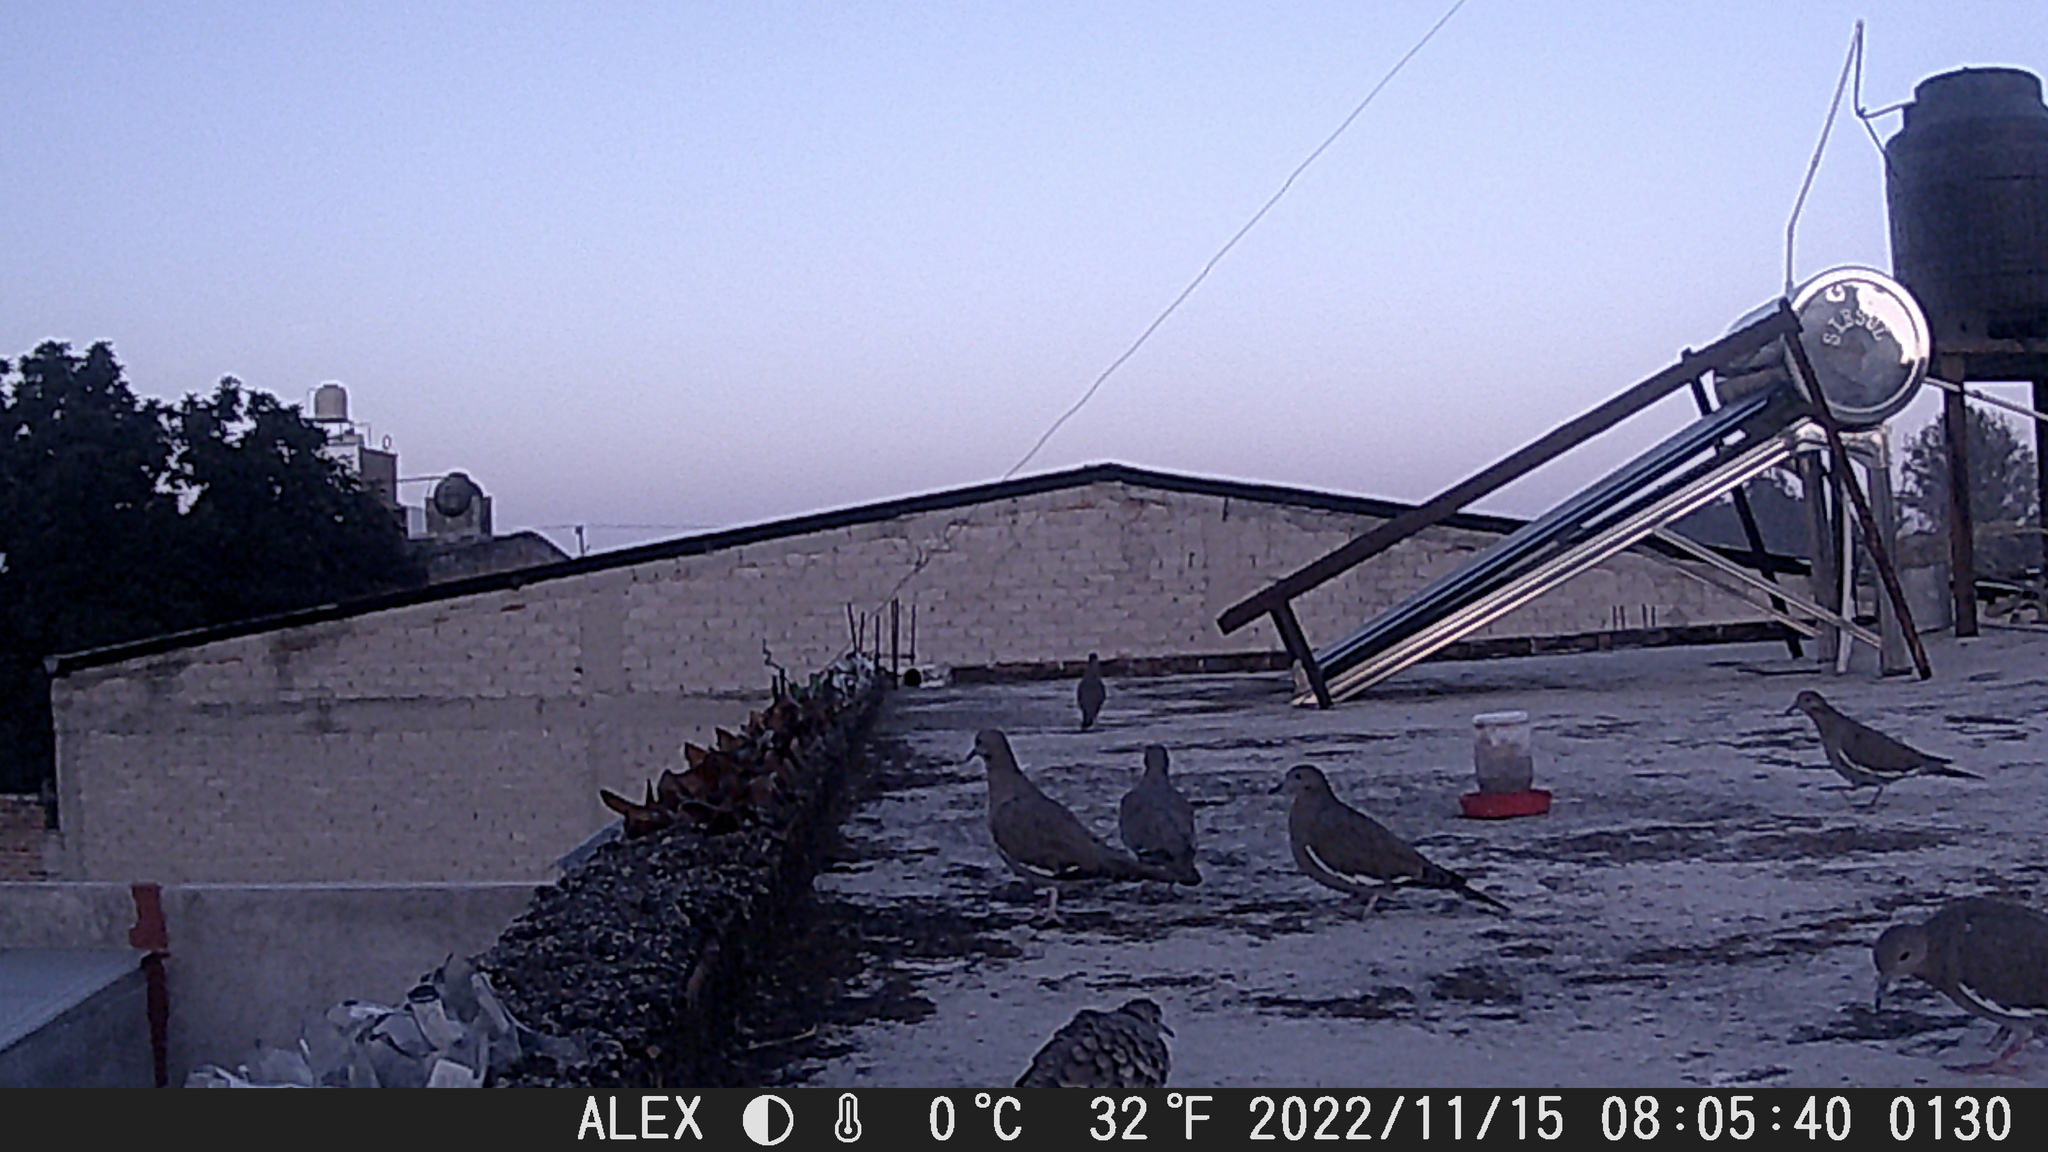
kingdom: Animalia
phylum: Chordata
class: Aves
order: Columbiformes
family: Columbidae
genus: Zenaida
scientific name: Zenaida asiatica
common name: White-winged dove
